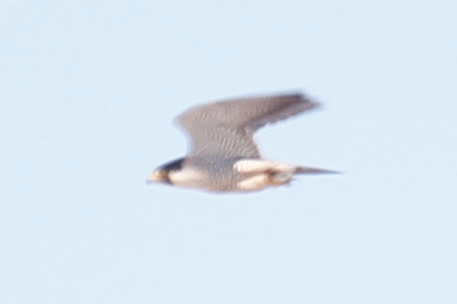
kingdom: Animalia
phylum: Chordata
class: Aves
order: Falconiformes
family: Falconidae
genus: Falco
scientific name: Falco peregrinus
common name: Peregrine falcon
